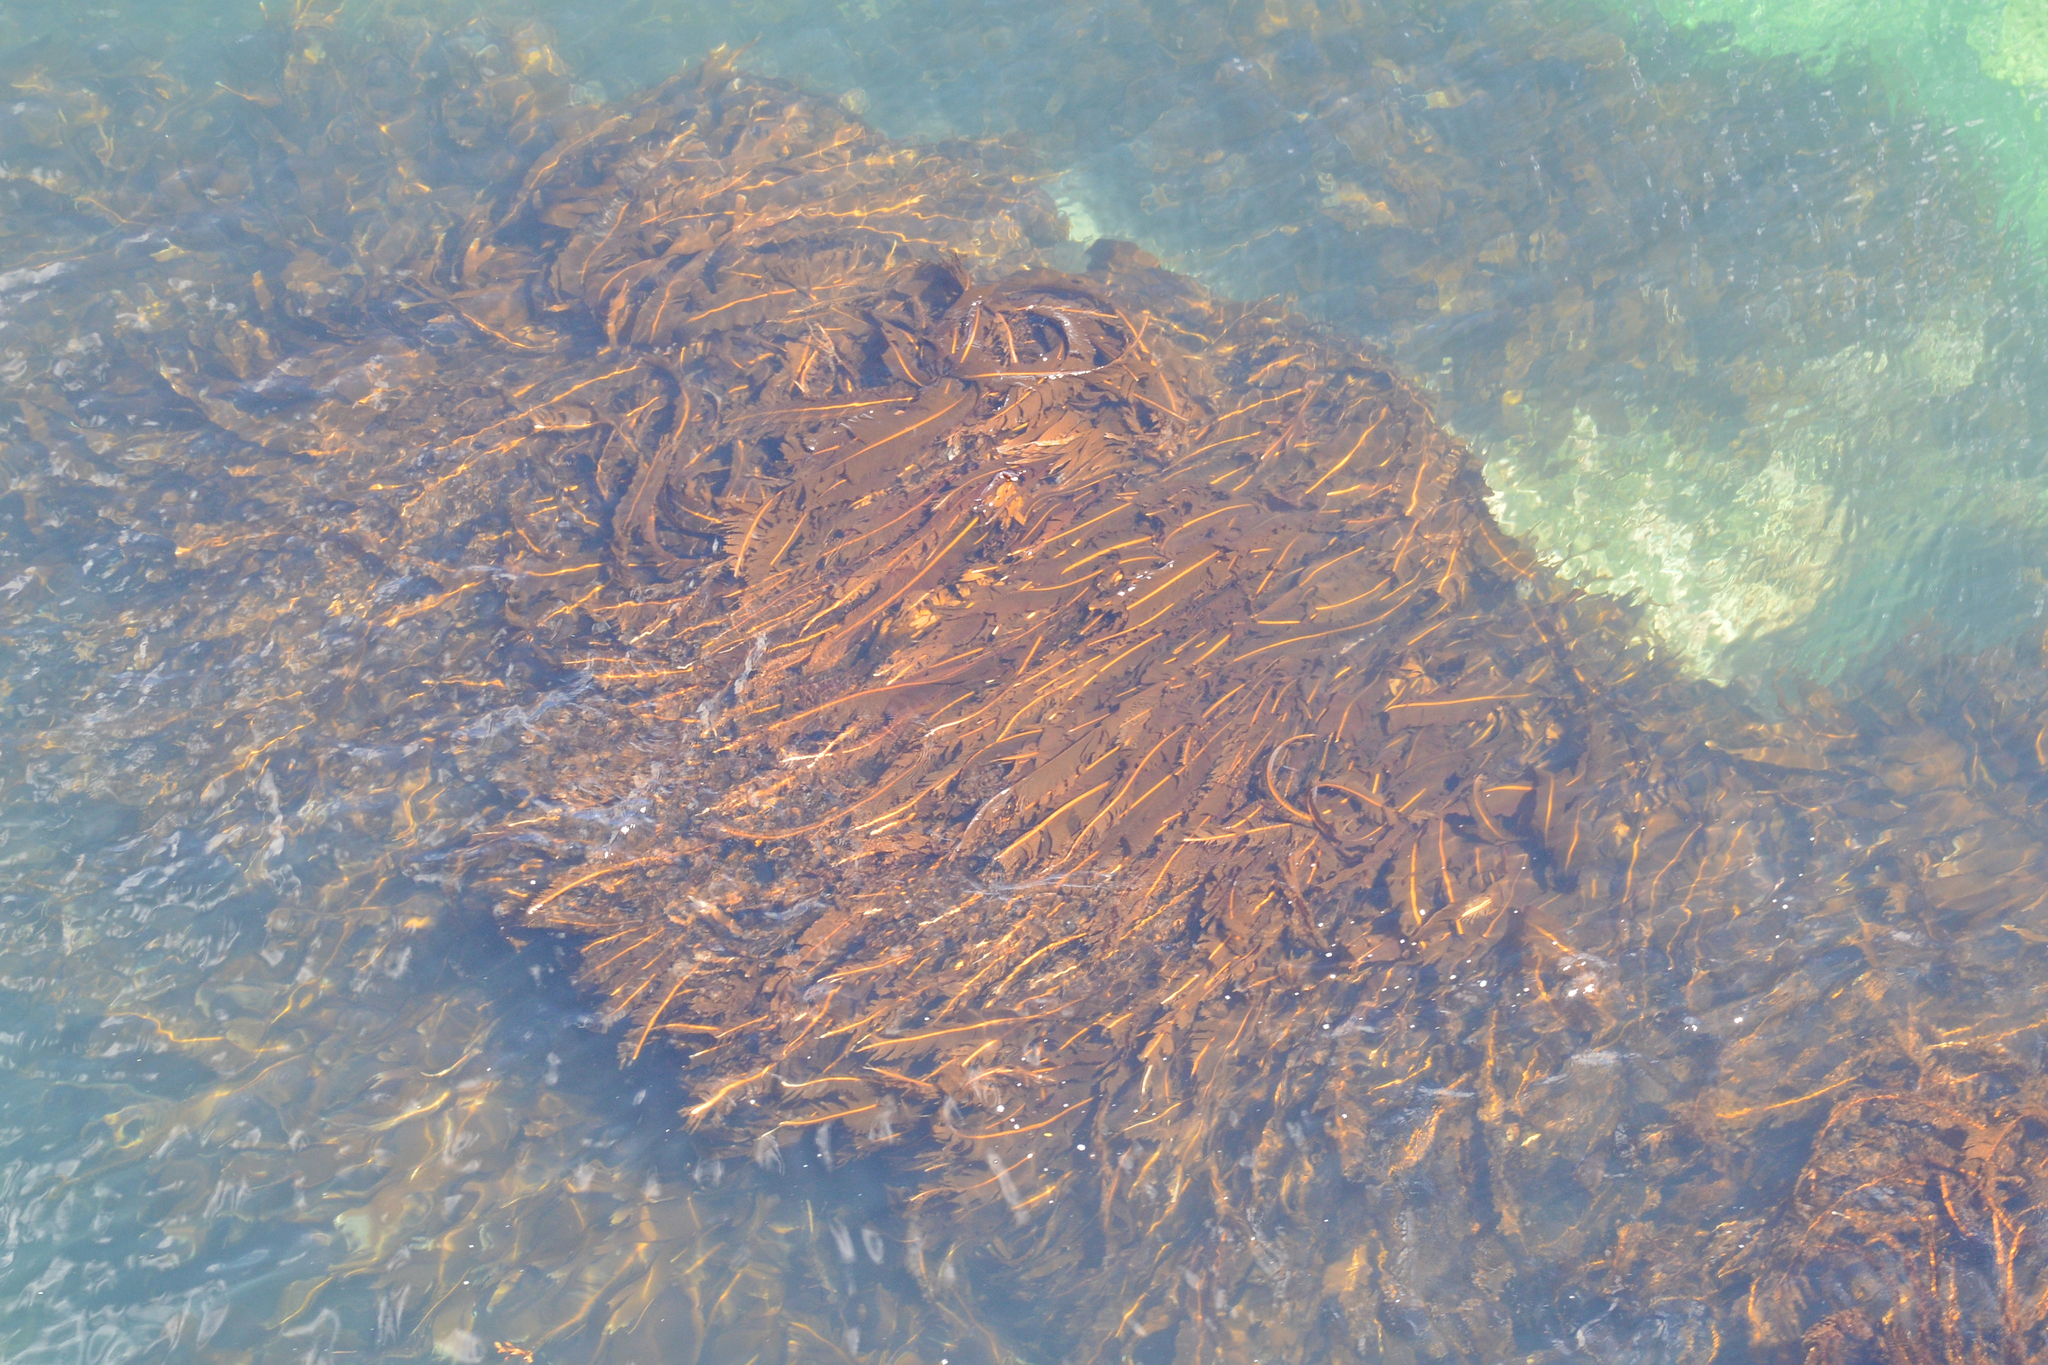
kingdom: Chromista
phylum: Ochrophyta
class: Phaeophyceae
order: Laminariales
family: Alariaceae
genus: Alaria
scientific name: Alaria esculenta
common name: Dabberlocks
